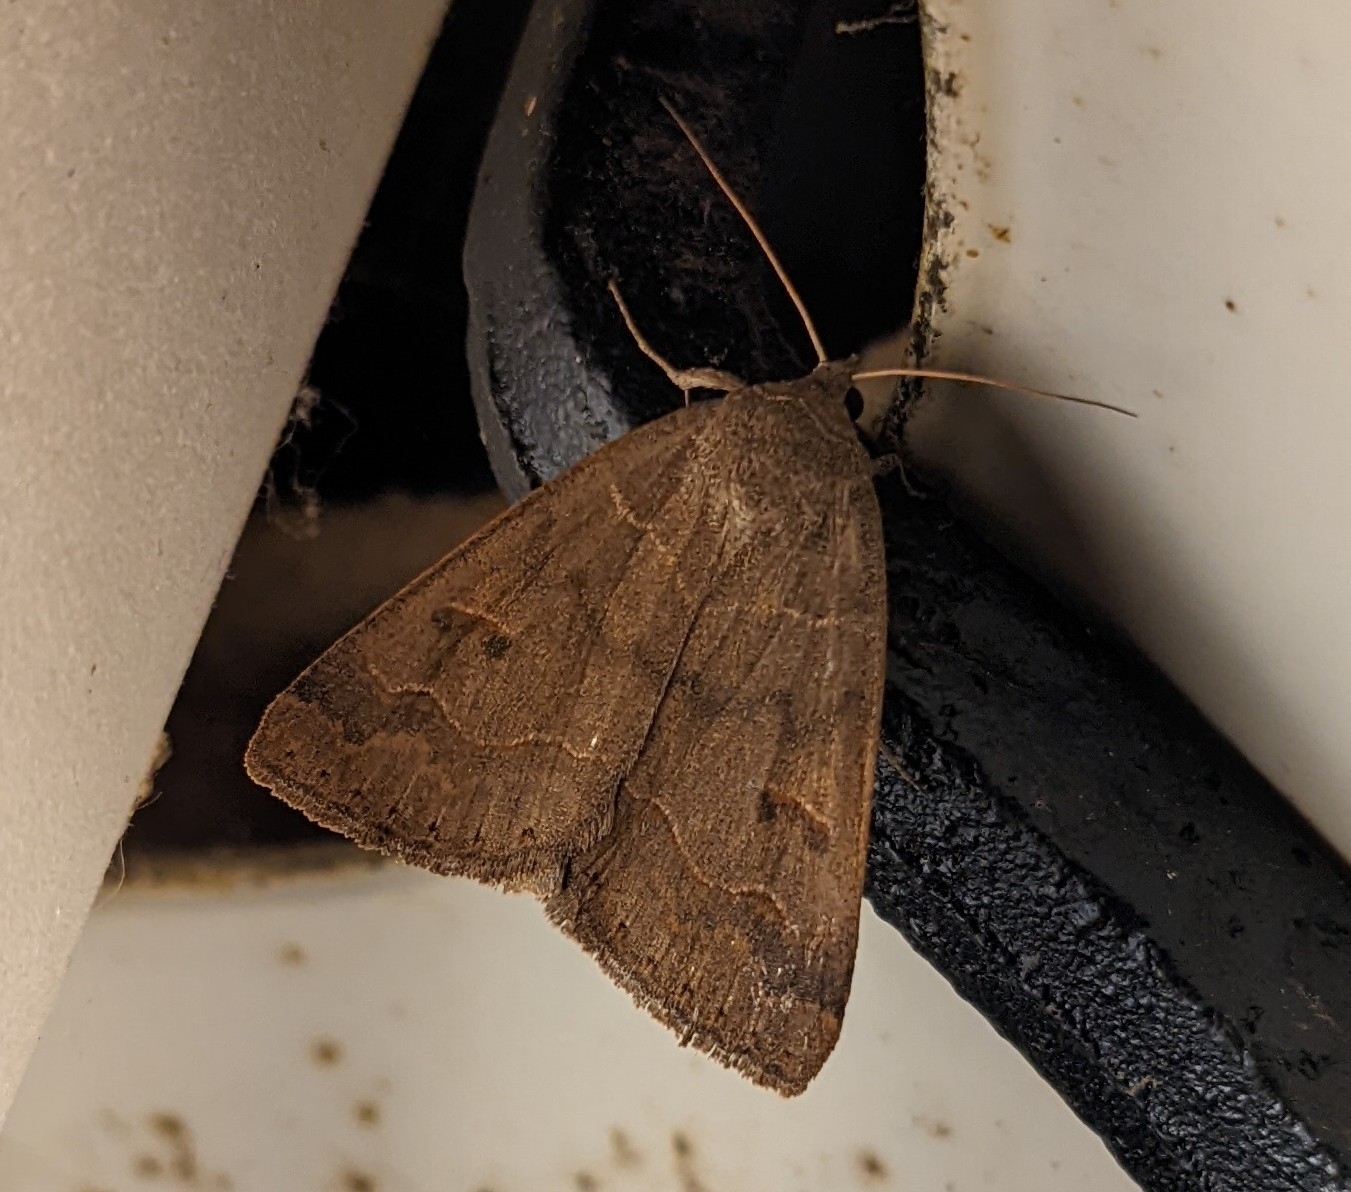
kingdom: Animalia
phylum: Arthropoda
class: Insecta
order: Lepidoptera
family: Erebidae
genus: Phoberia
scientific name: Phoberia atomaris
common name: Common oak moth
